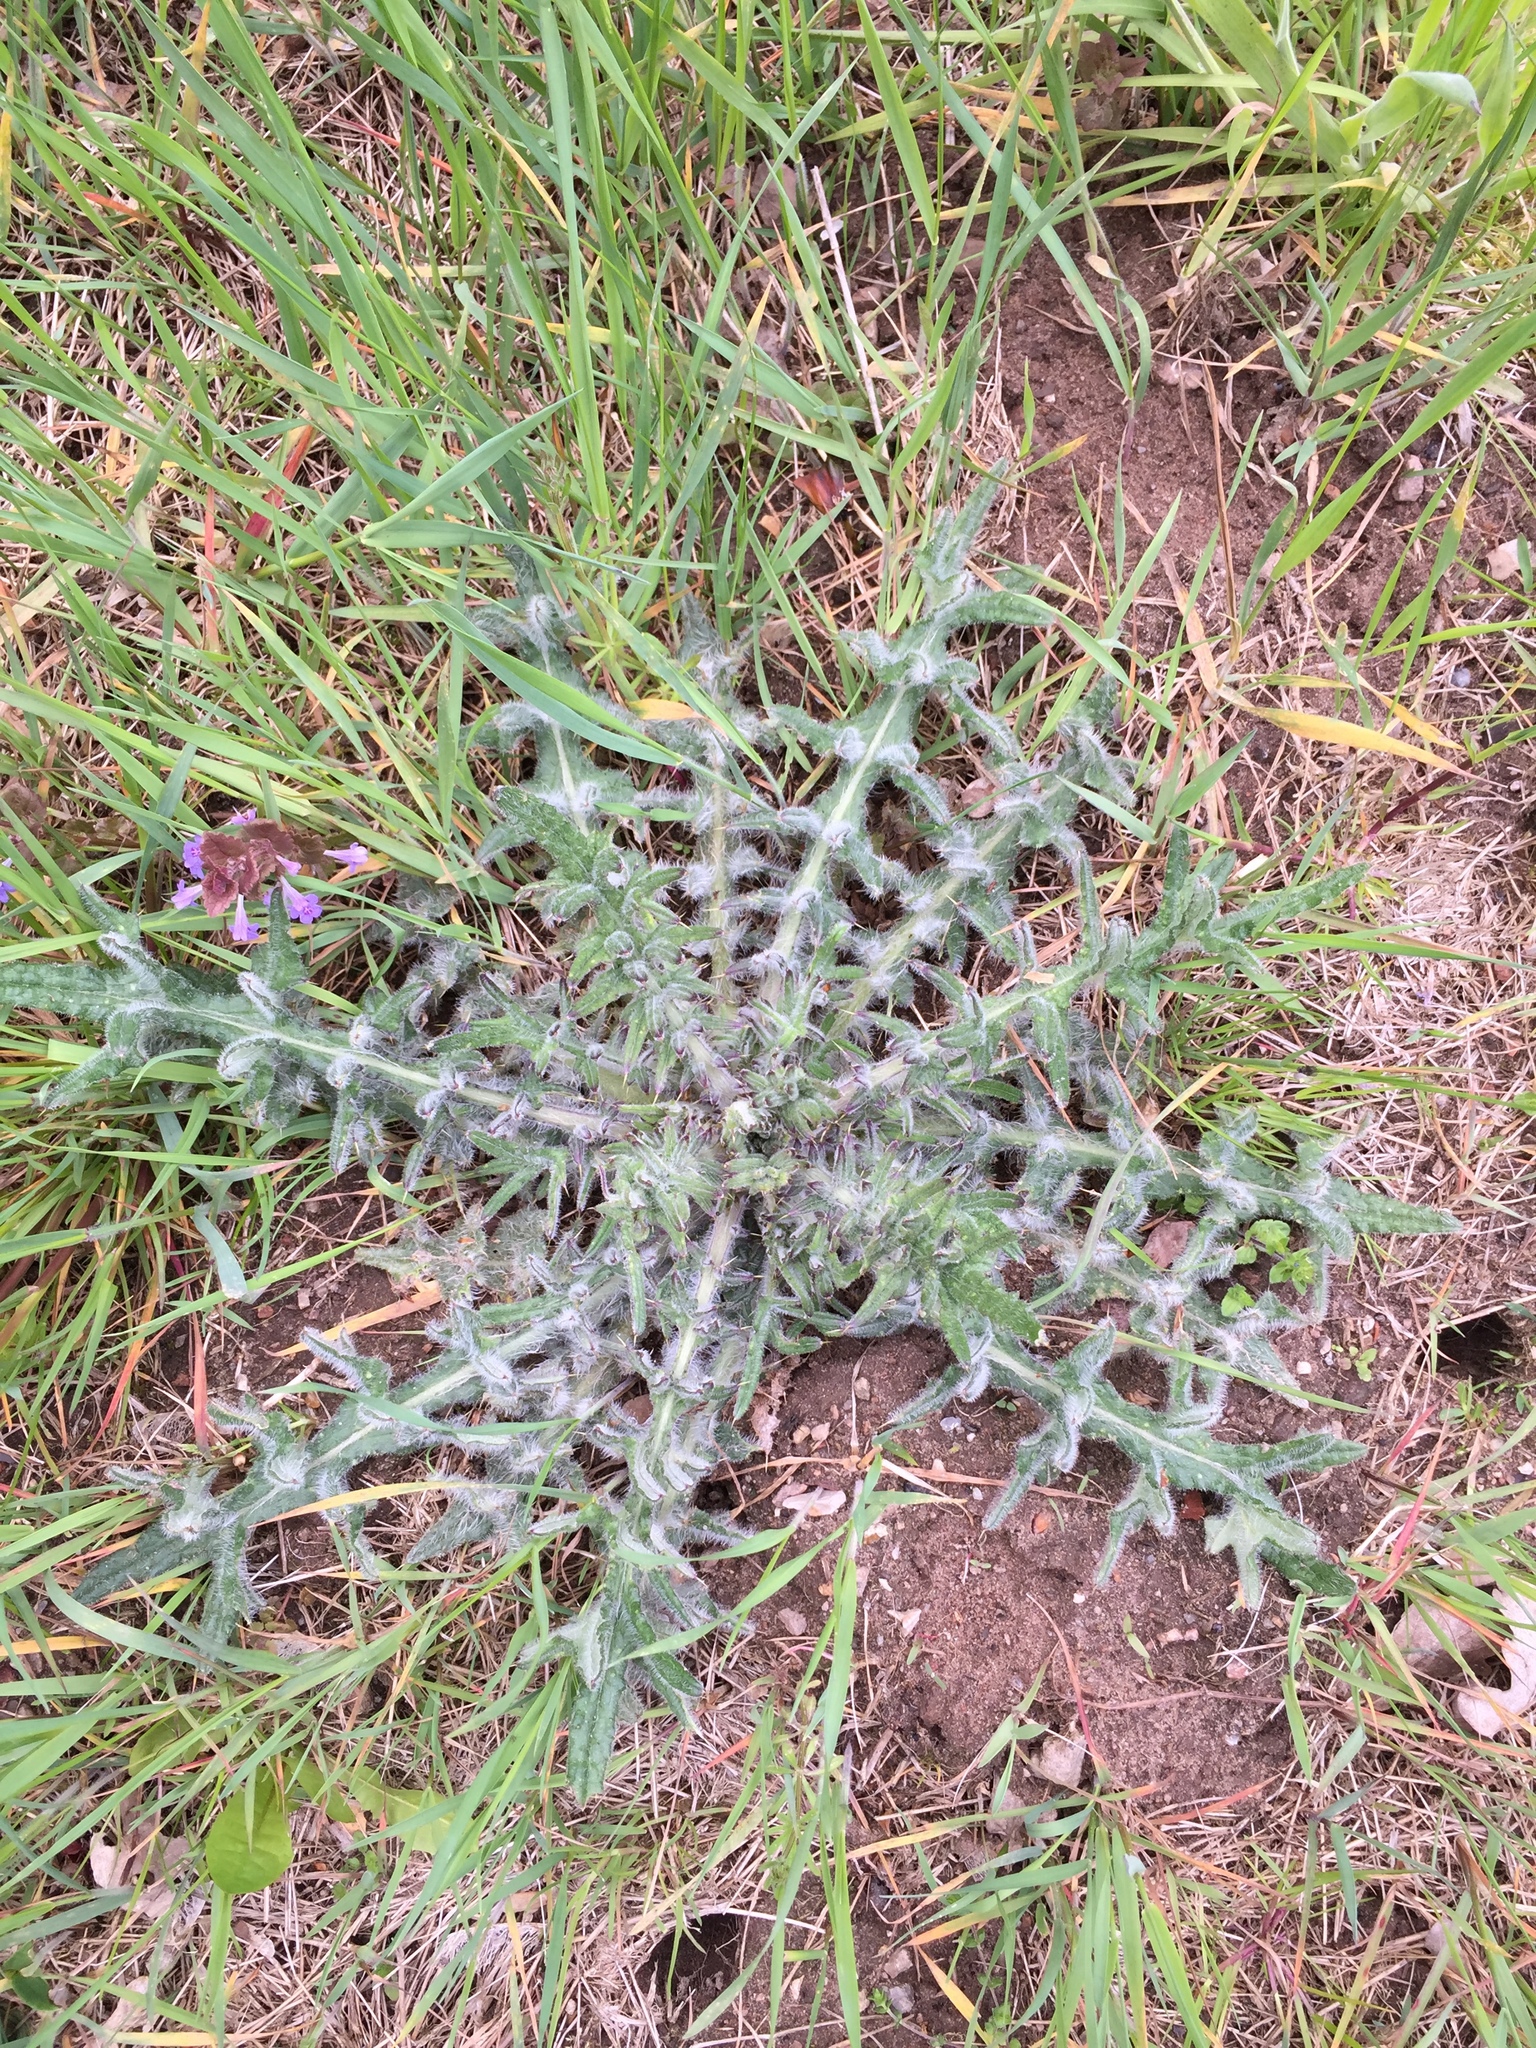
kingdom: Plantae
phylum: Tracheophyta
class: Magnoliopsida
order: Asterales
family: Asteraceae
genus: Cirsium
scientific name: Cirsium vulgare
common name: Bull thistle
